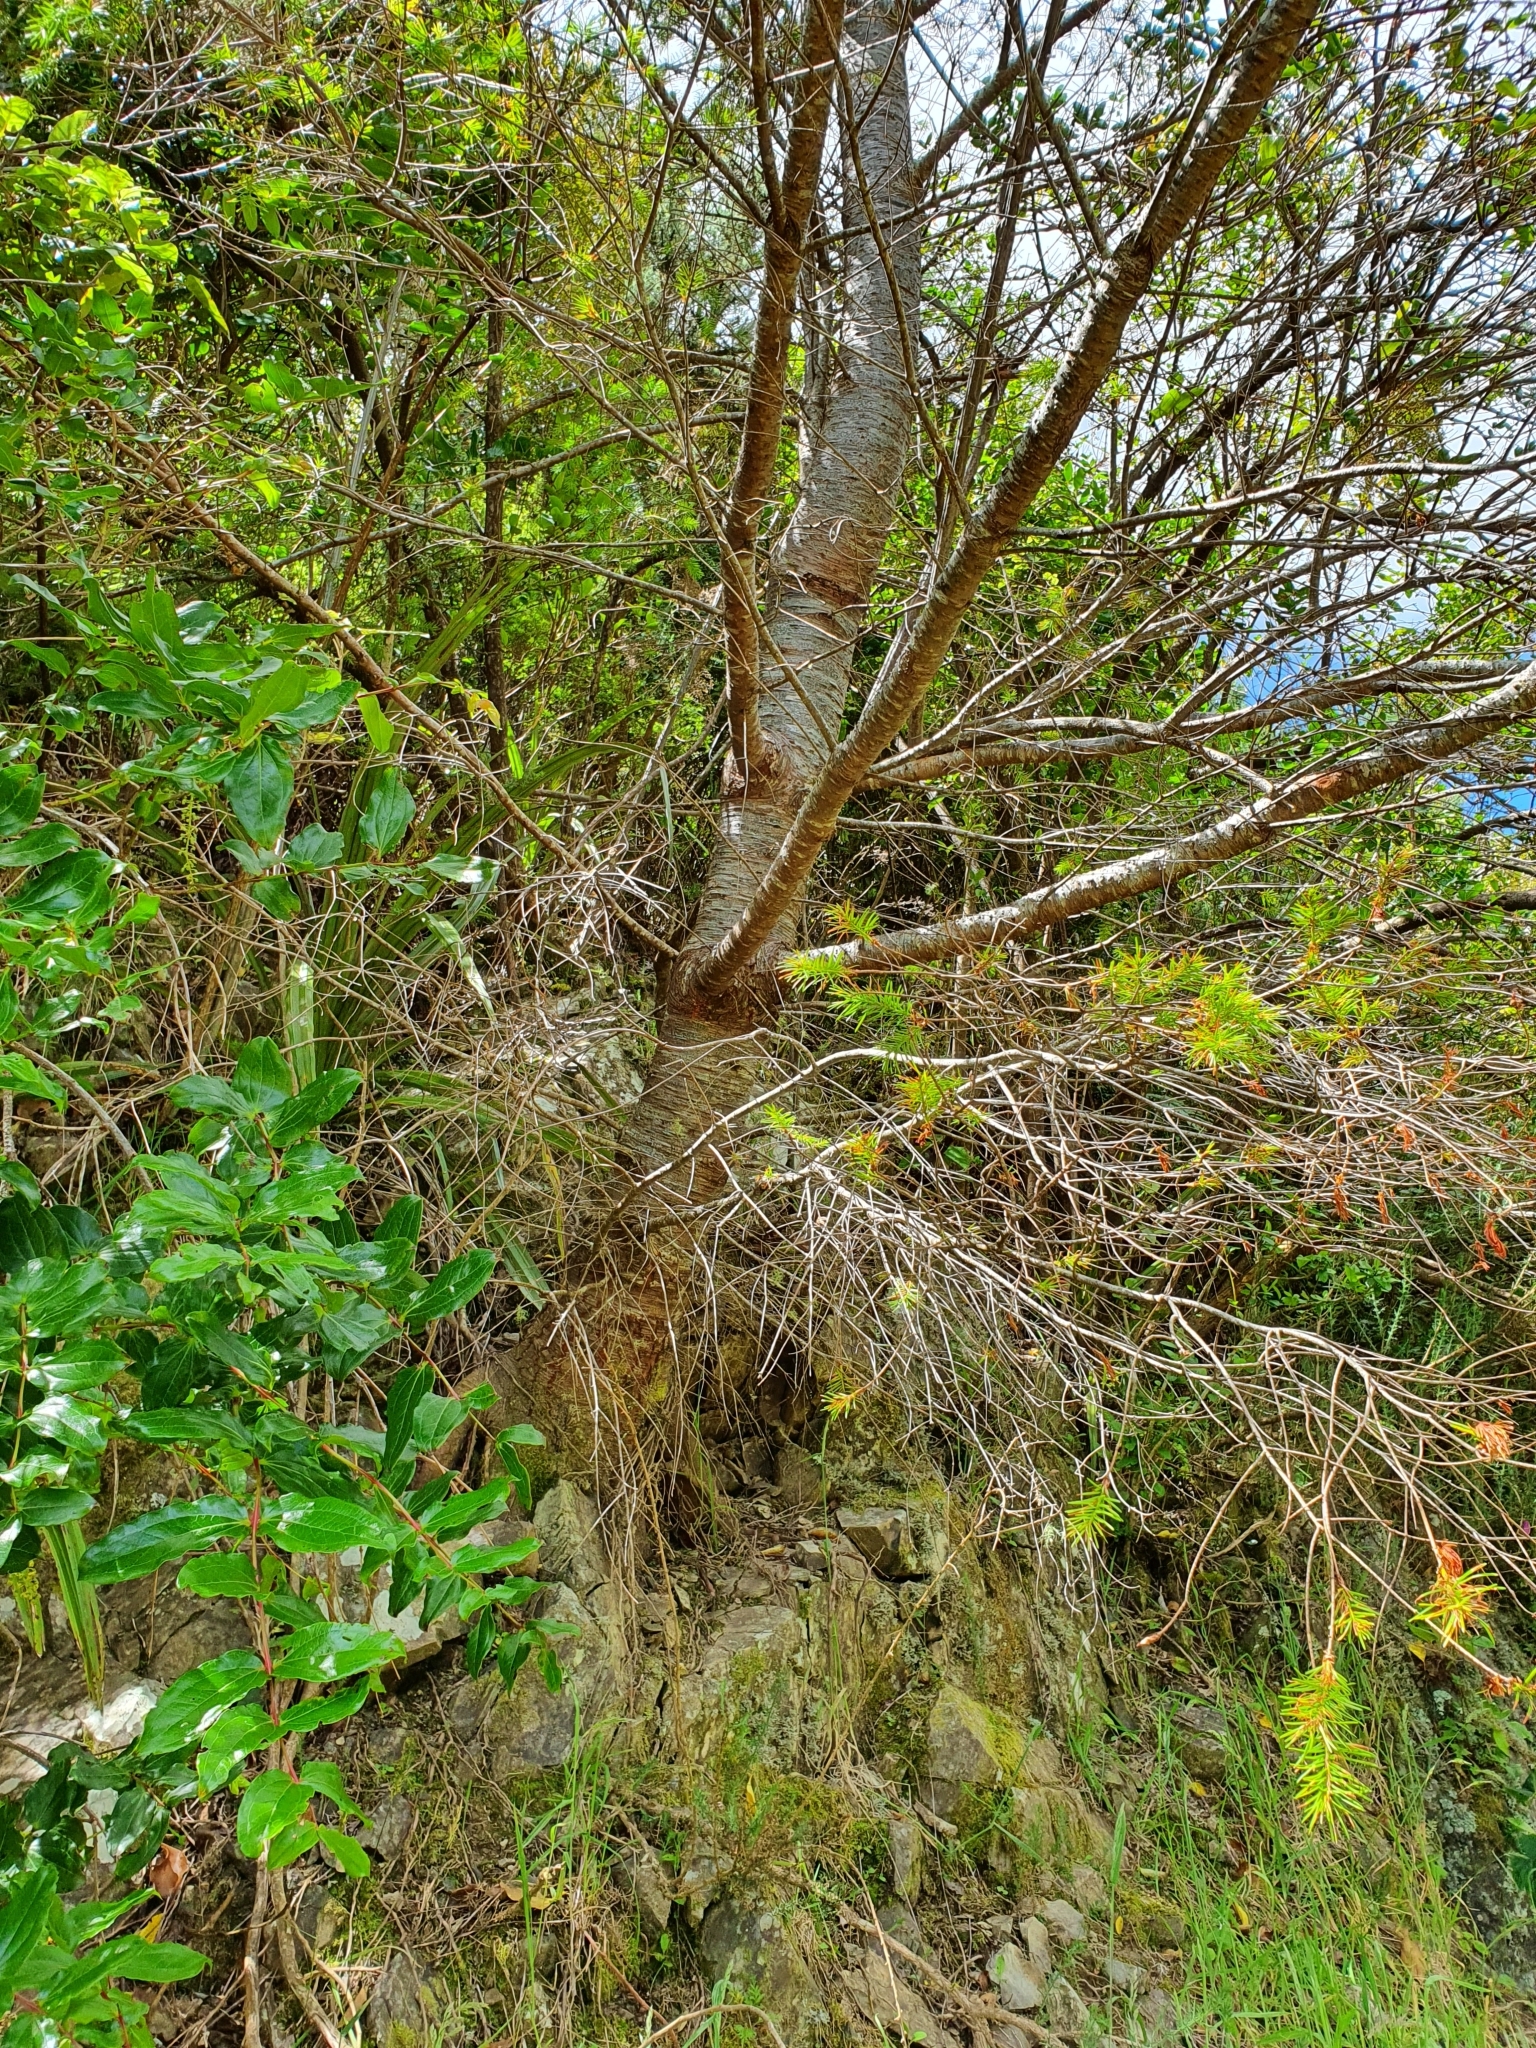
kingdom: Plantae
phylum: Tracheophyta
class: Pinopsida
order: Pinales
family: Pinaceae
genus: Pseudotsuga
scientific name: Pseudotsuga menziesii
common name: Douglas fir
